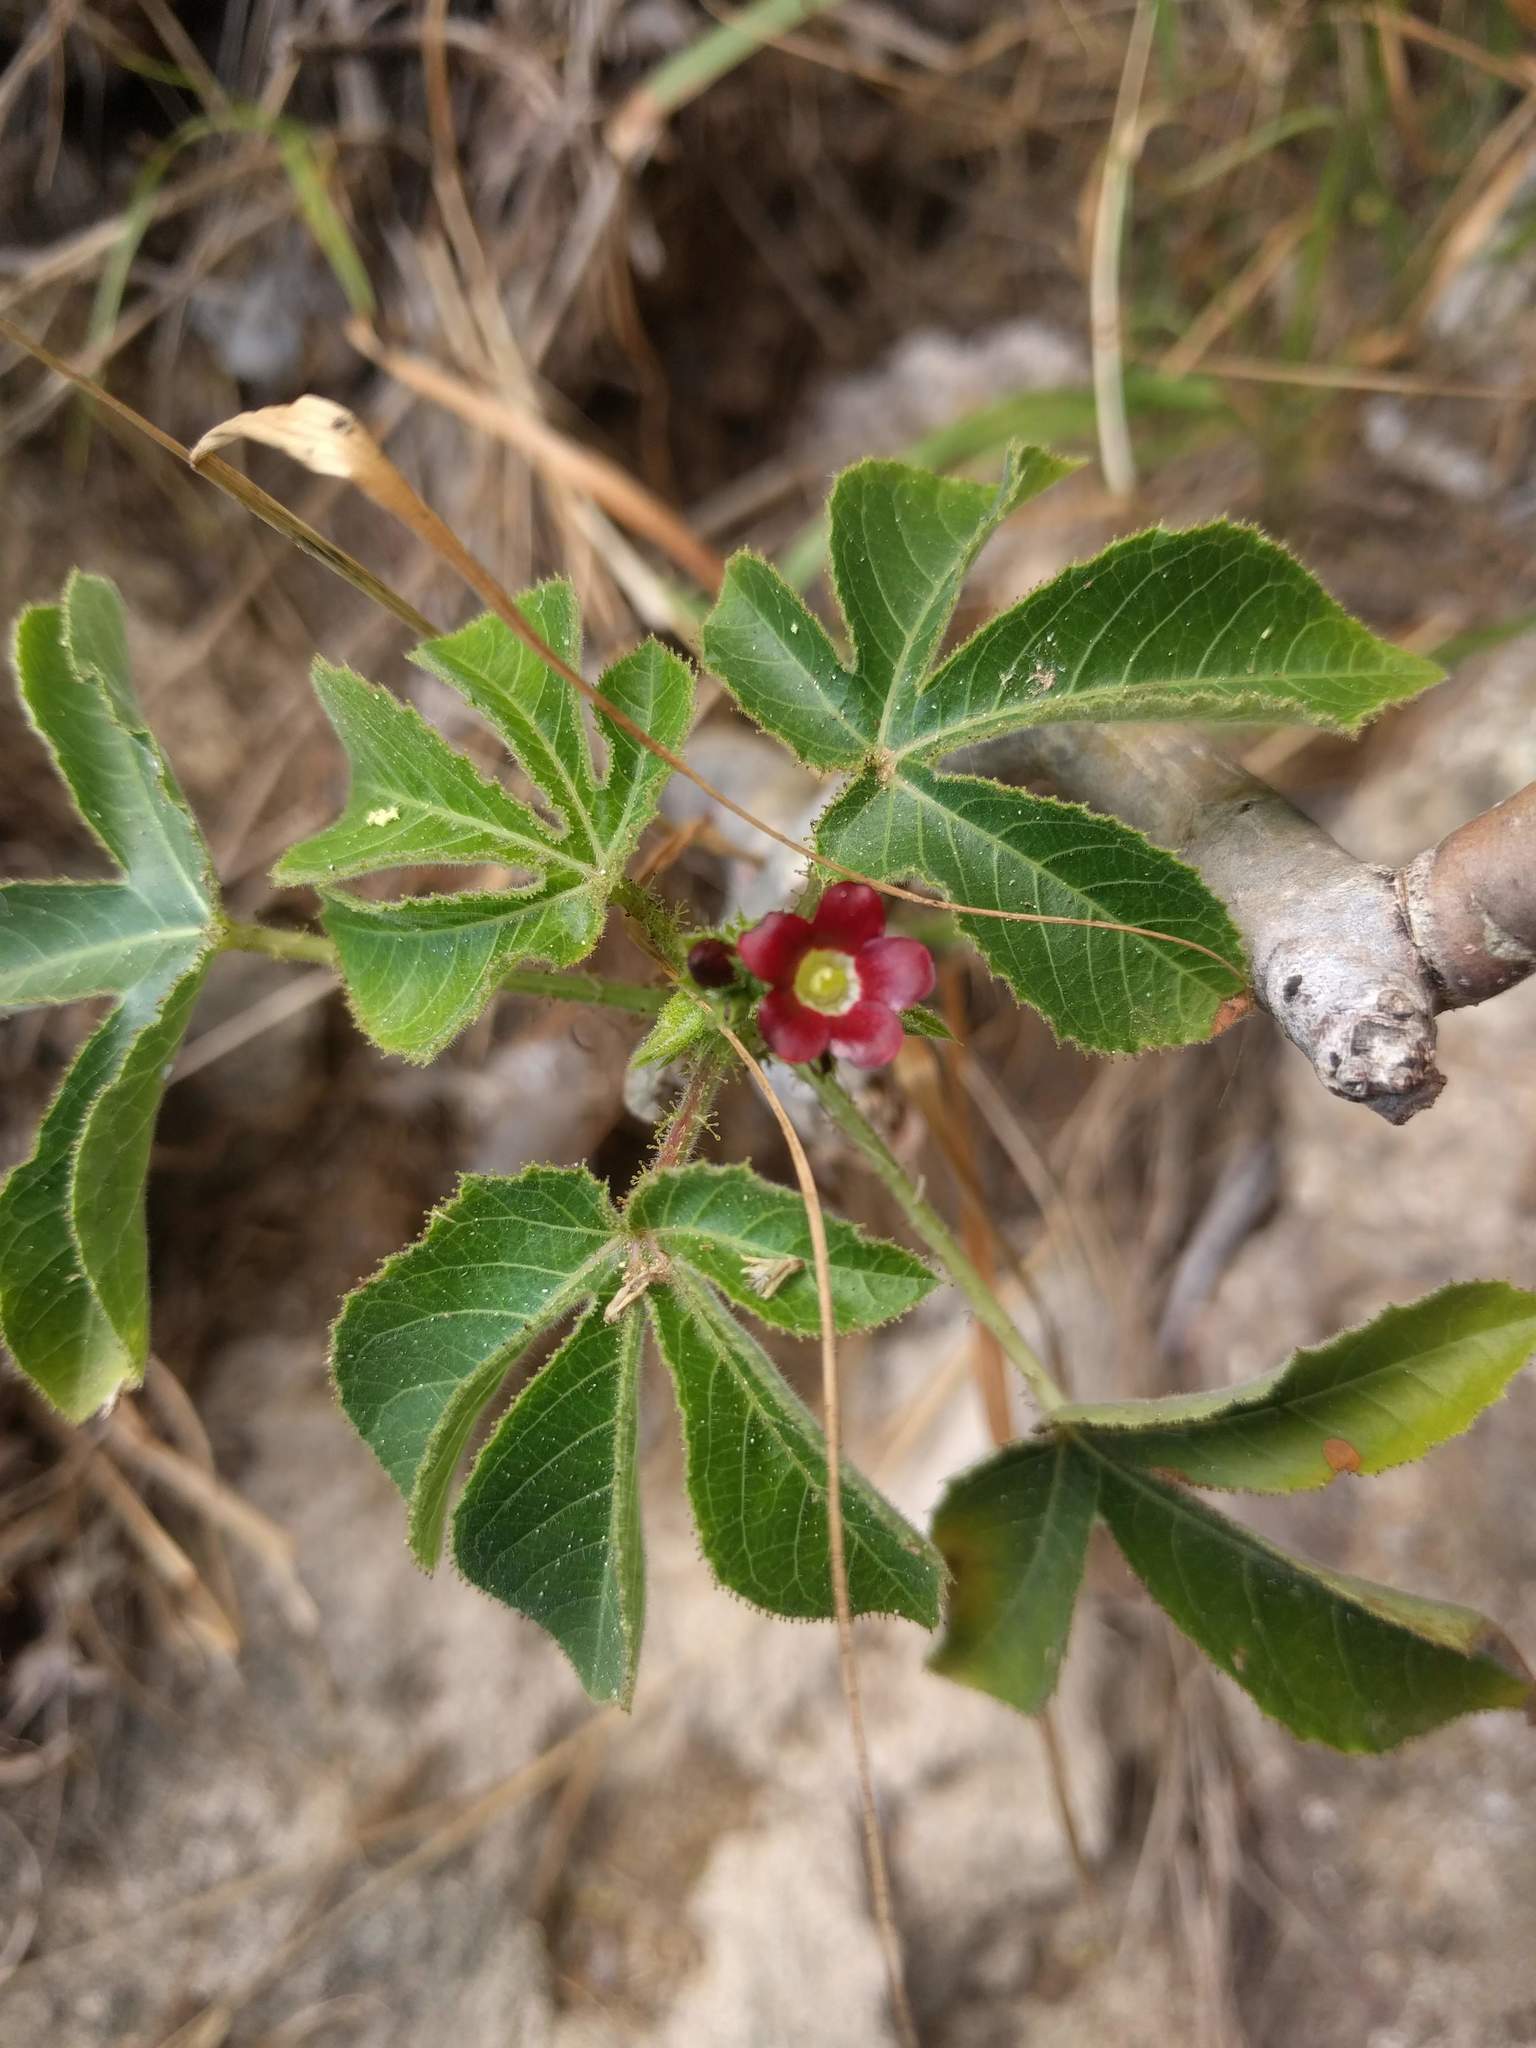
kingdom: Plantae
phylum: Tracheophyta
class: Magnoliopsida
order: Malpighiales
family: Euphorbiaceae
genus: Jatropha
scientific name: Jatropha gossypiifolia
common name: Bellyache bush
